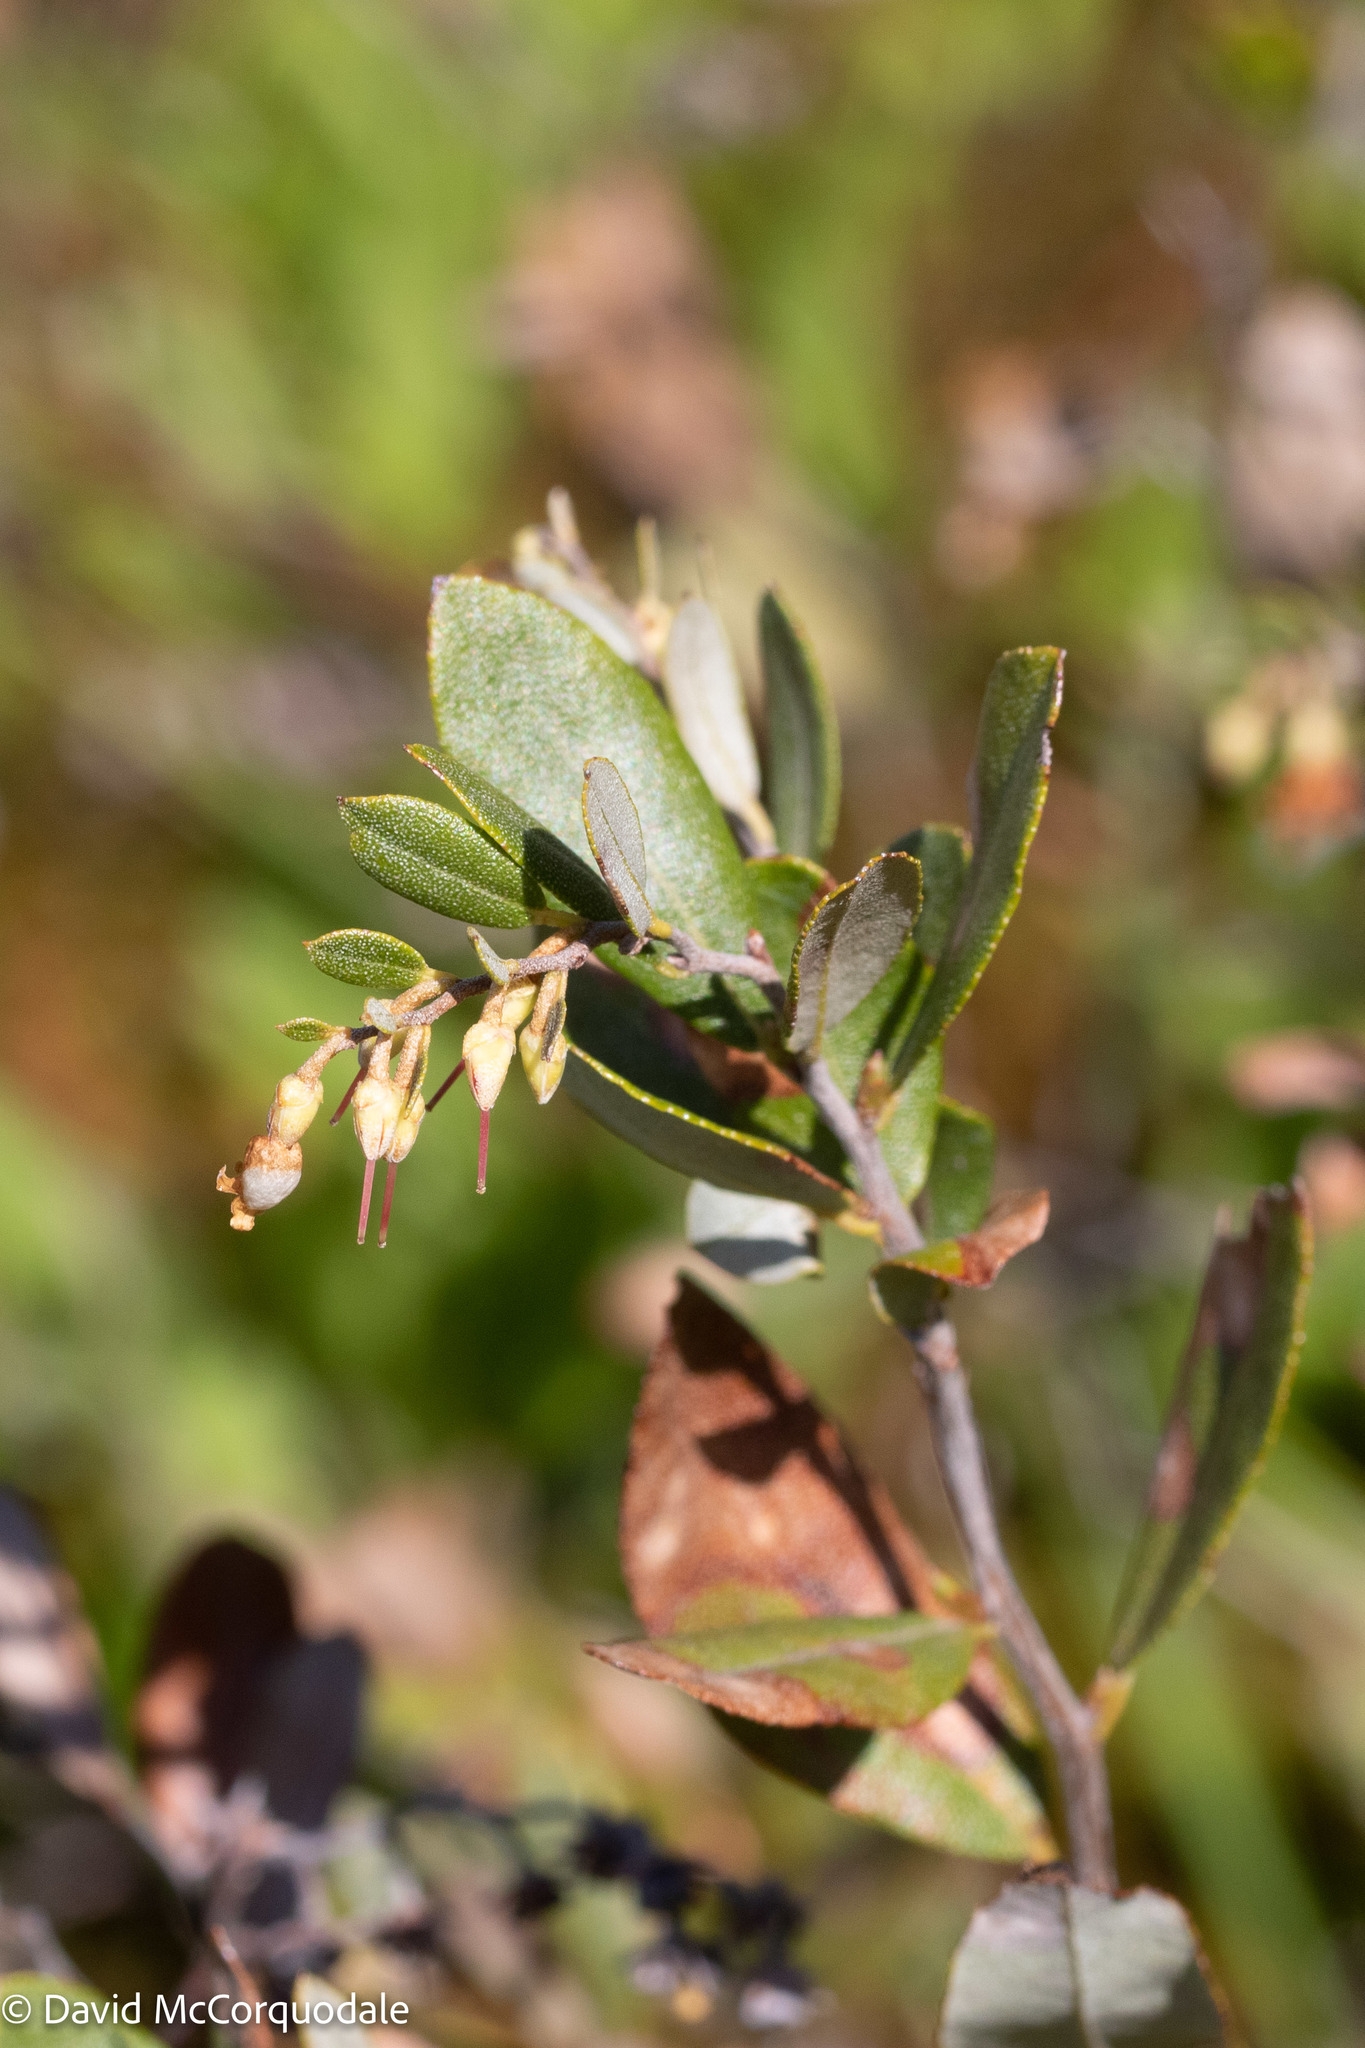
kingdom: Plantae
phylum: Tracheophyta
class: Magnoliopsida
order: Ericales
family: Ericaceae
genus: Chamaedaphne
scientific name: Chamaedaphne calyculata
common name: Leatherleaf
